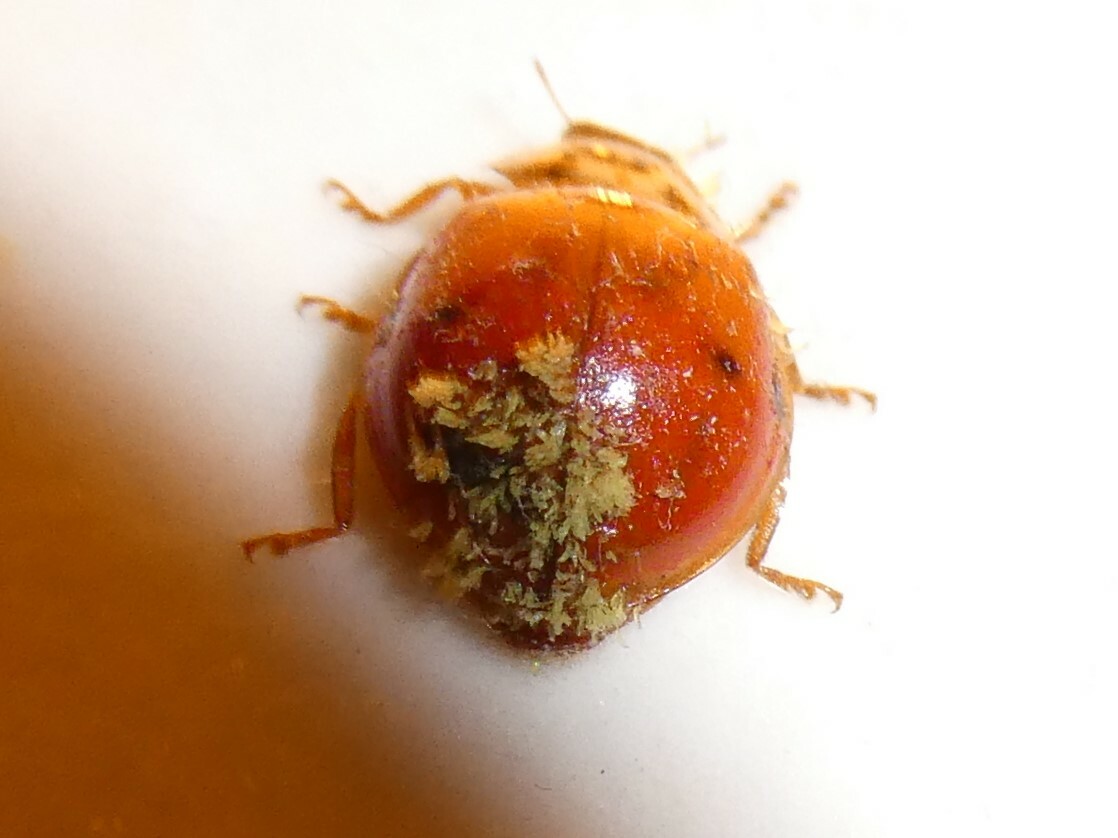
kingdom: Fungi
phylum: Ascomycota
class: Laboulbeniomycetes
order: Laboulbeniales
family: Laboulbeniaceae
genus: Hesperomyces
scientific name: Hesperomyces harmoniae
